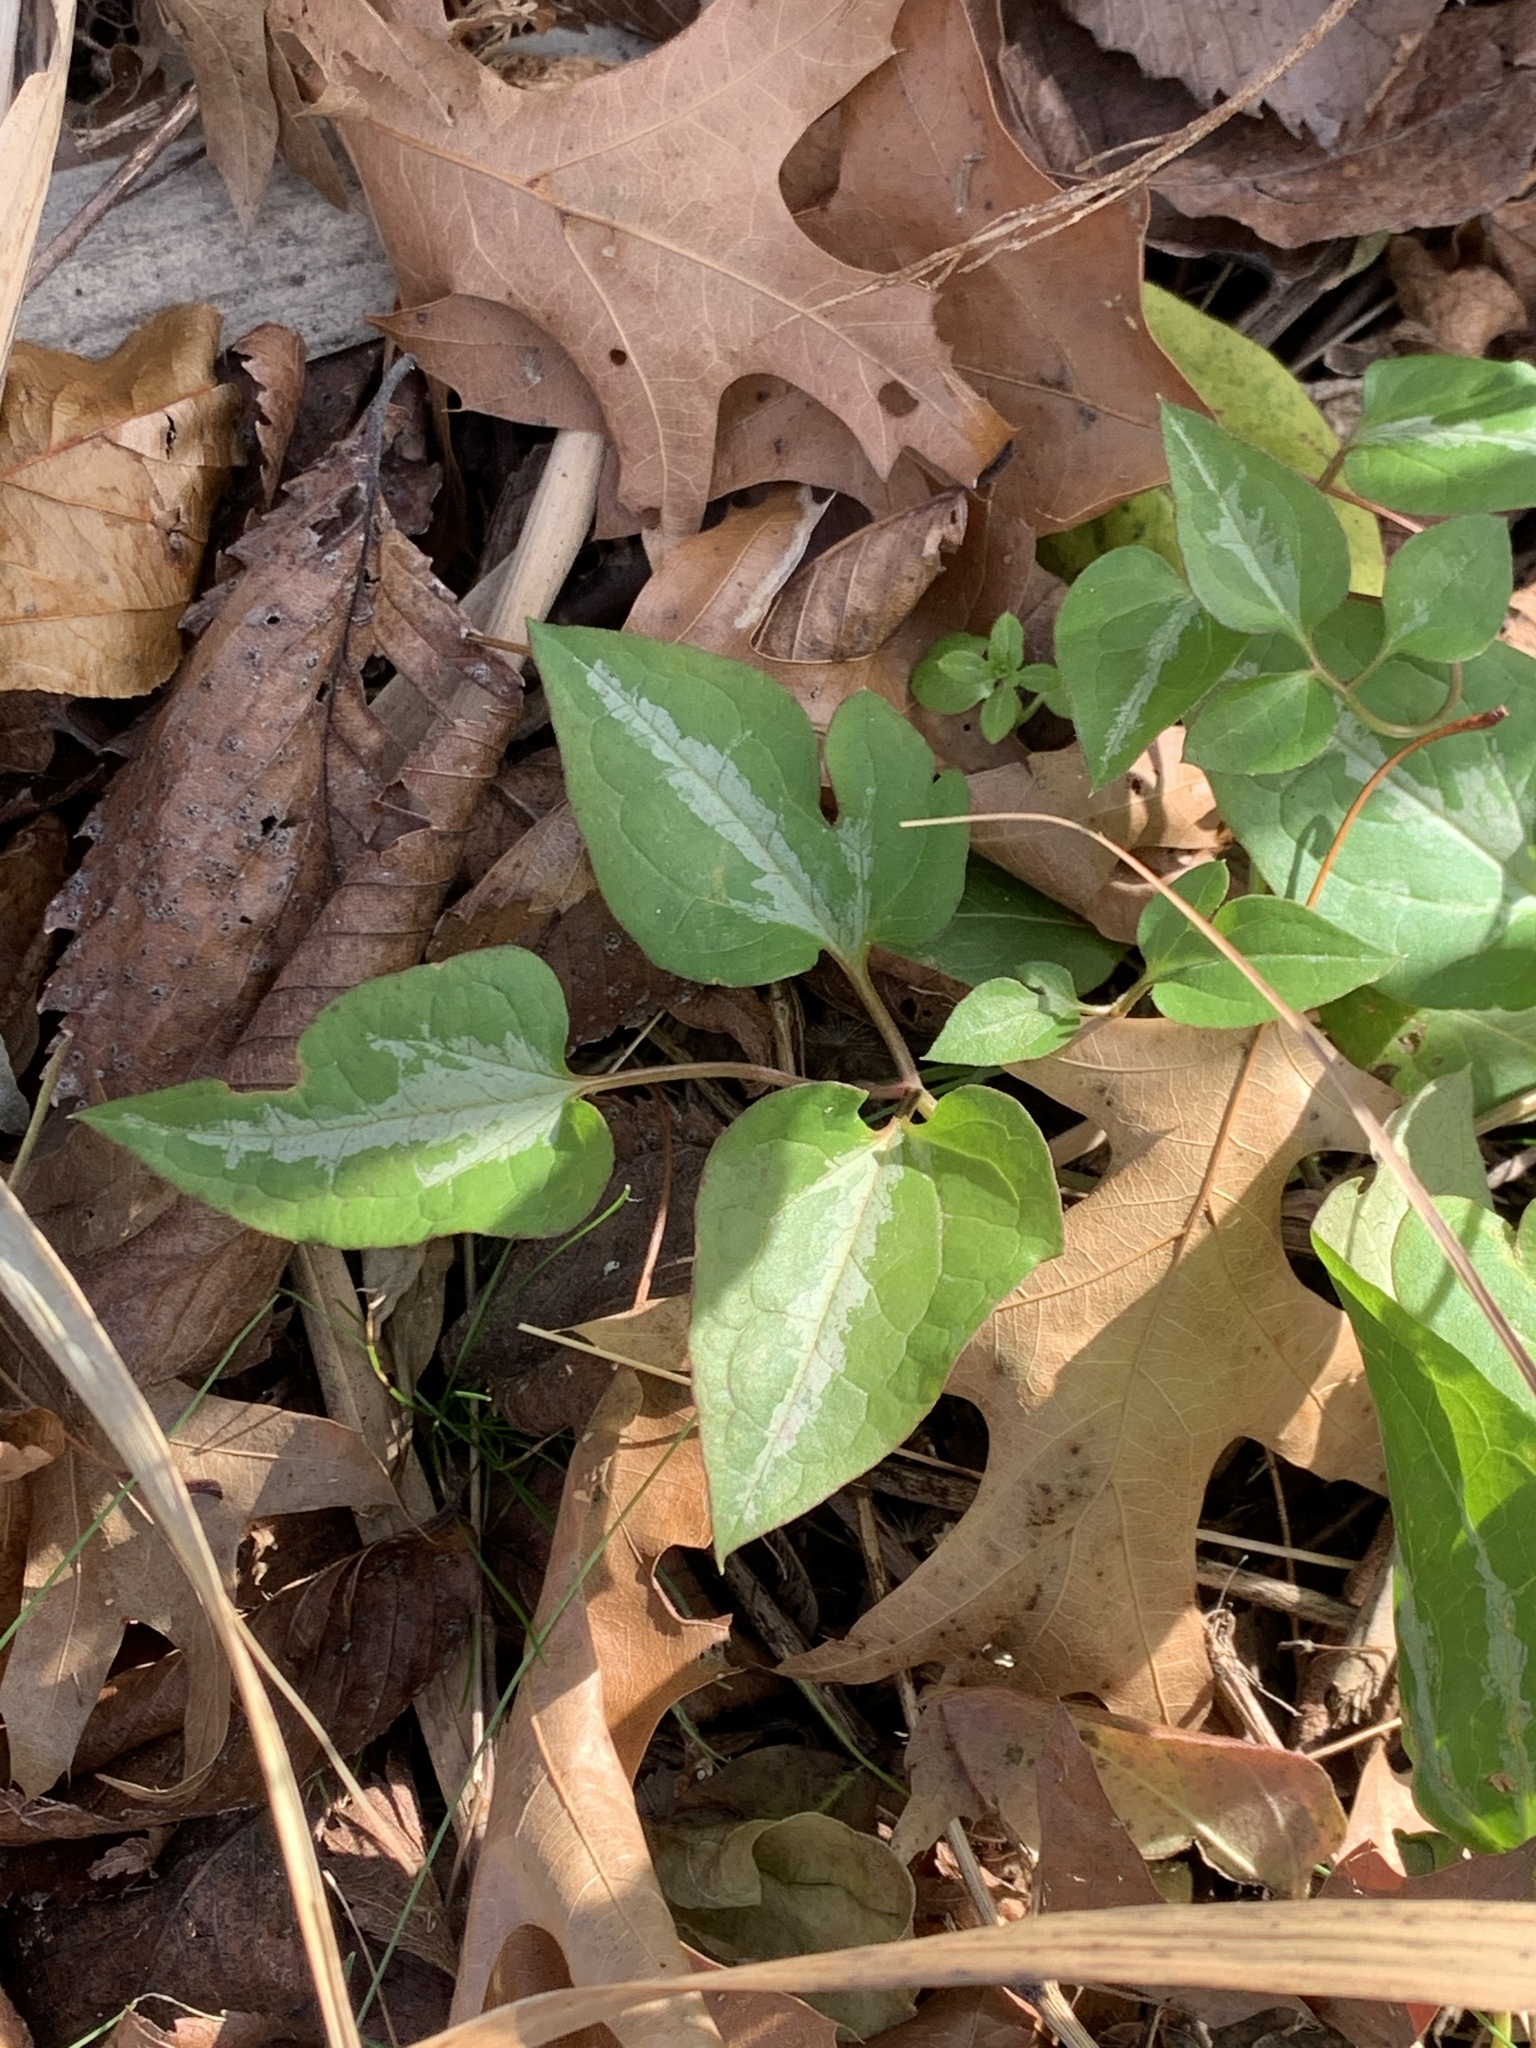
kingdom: Plantae
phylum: Tracheophyta
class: Magnoliopsida
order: Ranunculales
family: Ranunculaceae
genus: Clematis
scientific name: Clematis terniflora
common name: Sweet autumn clematis
